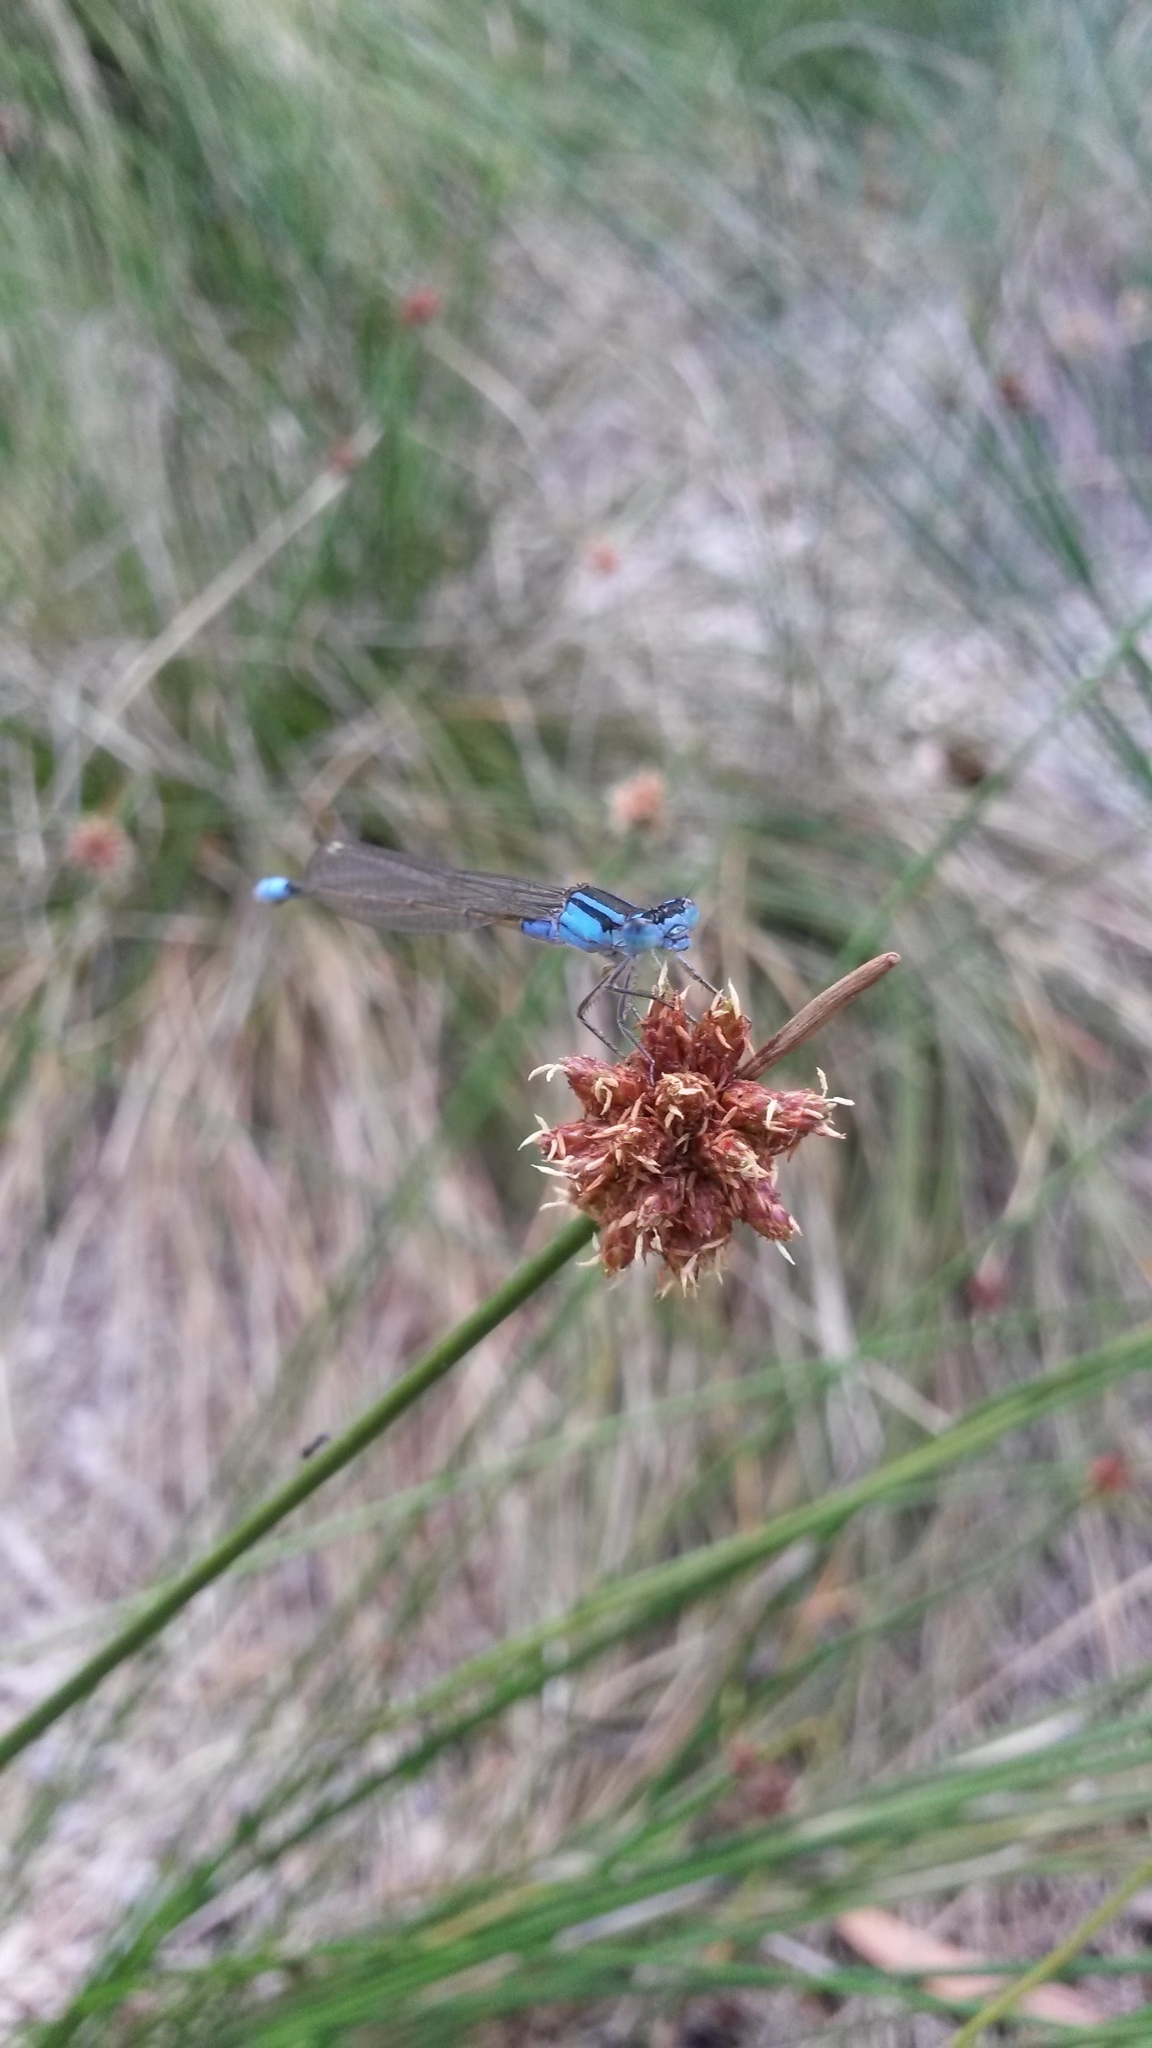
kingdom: Animalia
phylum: Arthropoda
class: Insecta
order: Odonata
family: Coenagrionidae
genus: Ischnura
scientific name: Ischnura heterosticta
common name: Common bluetail
